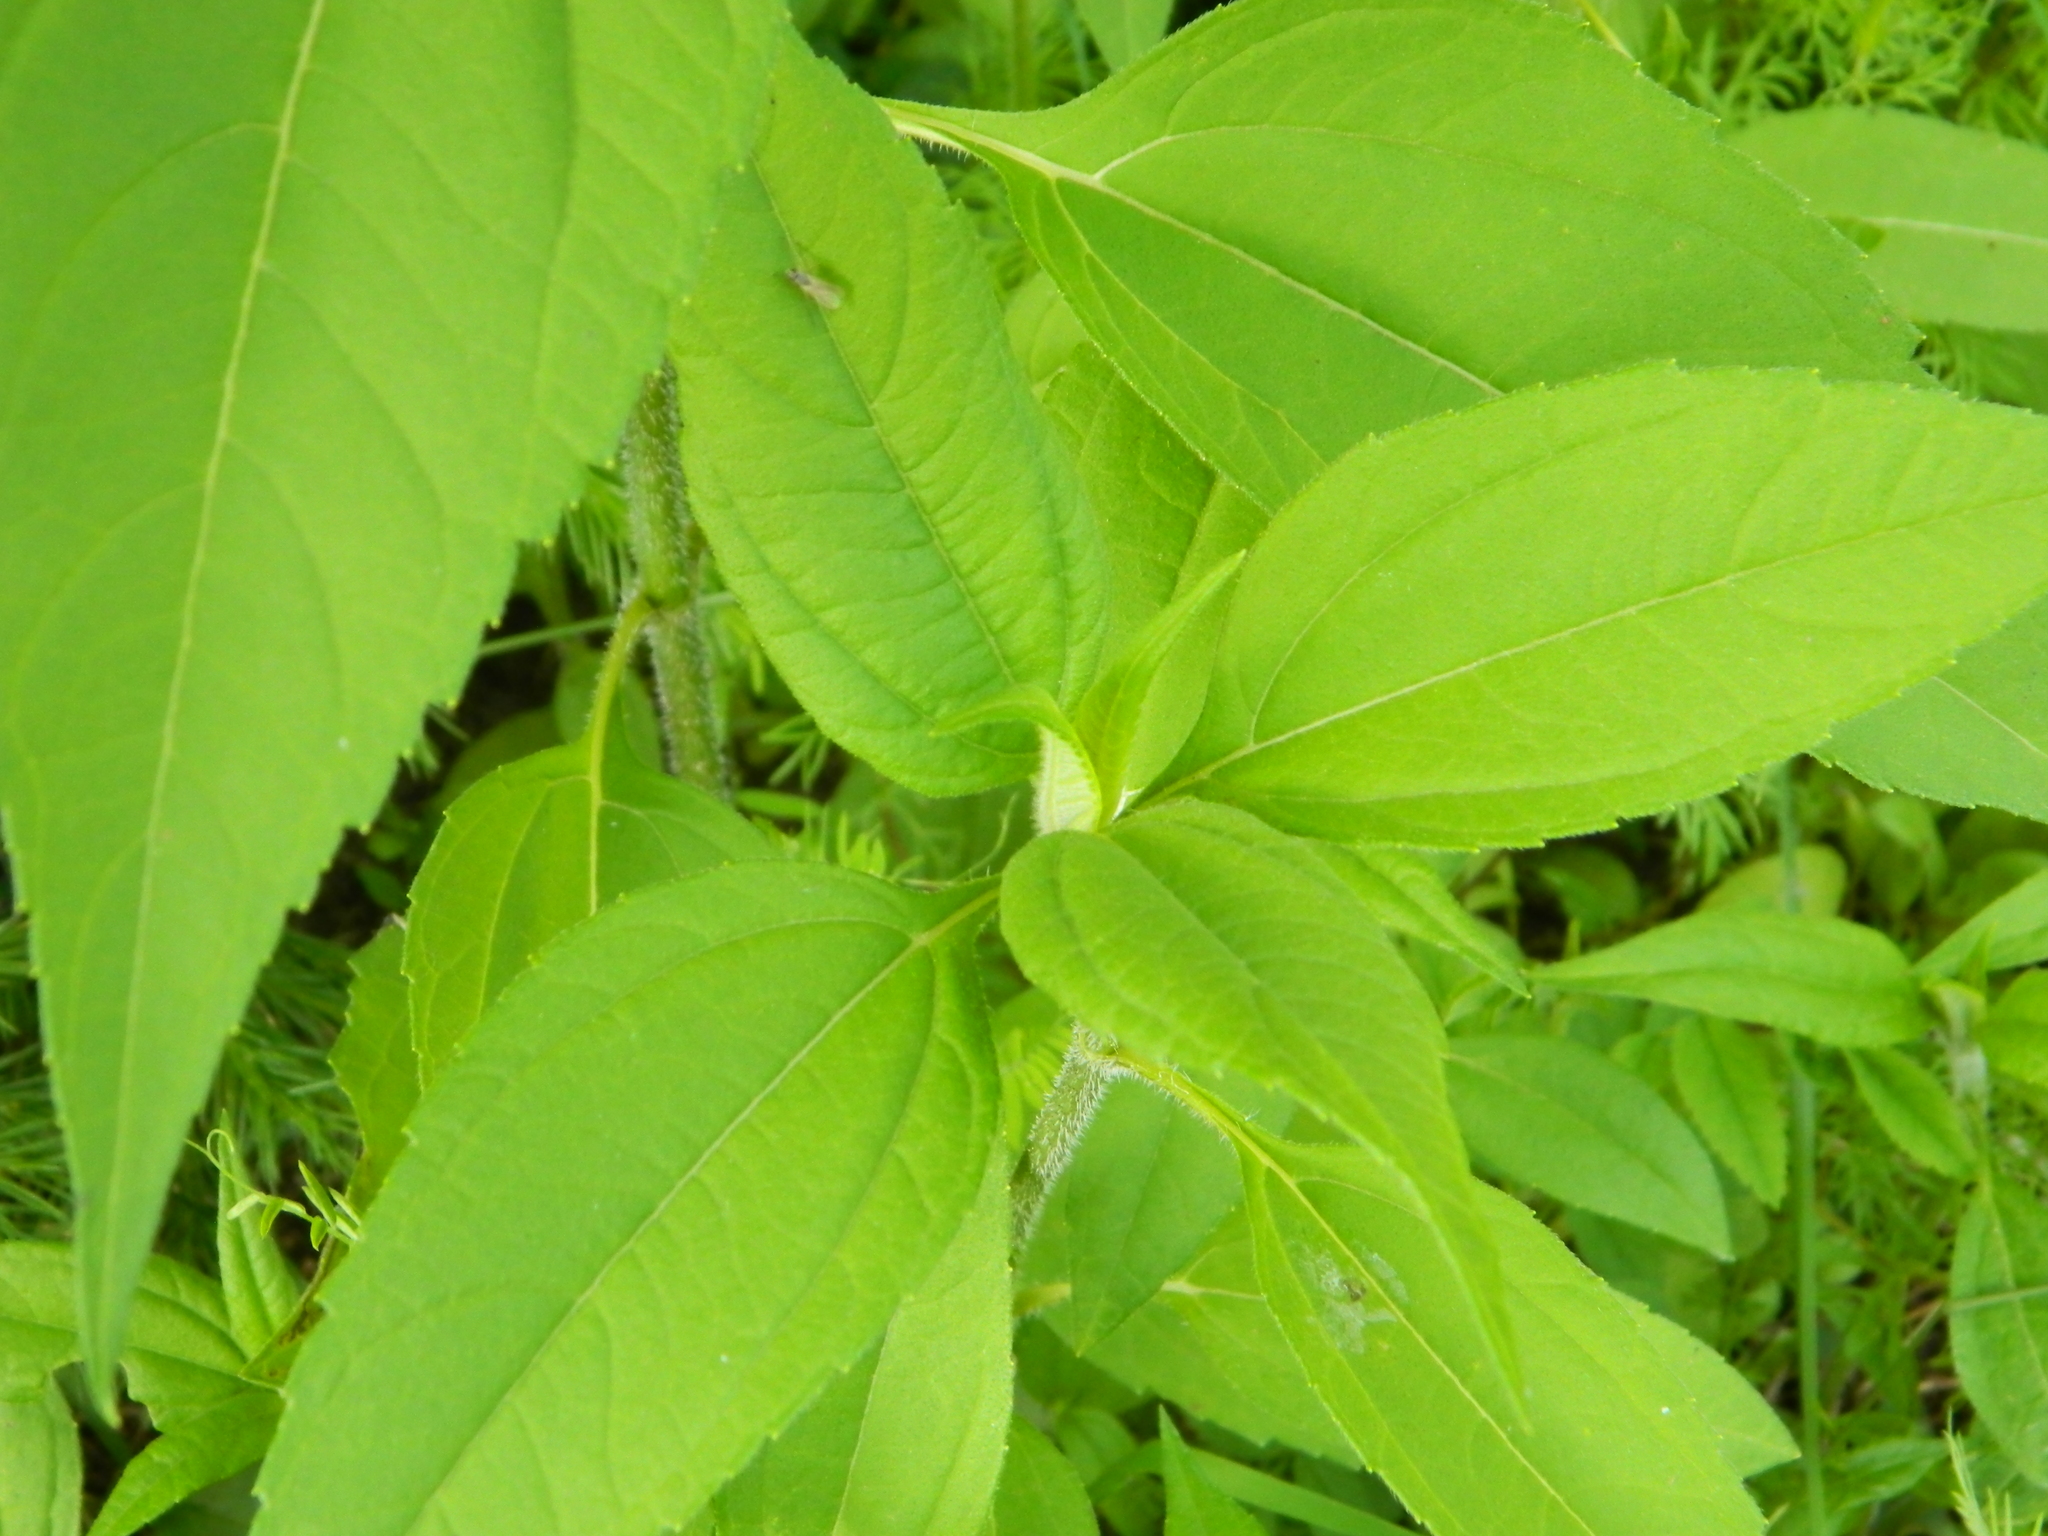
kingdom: Plantae
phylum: Tracheophyta
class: Magnoliopsida
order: Asterales
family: Asteraceae
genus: Helianthus
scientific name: Helianthus tuberosus
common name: Jerusalem artichoke
